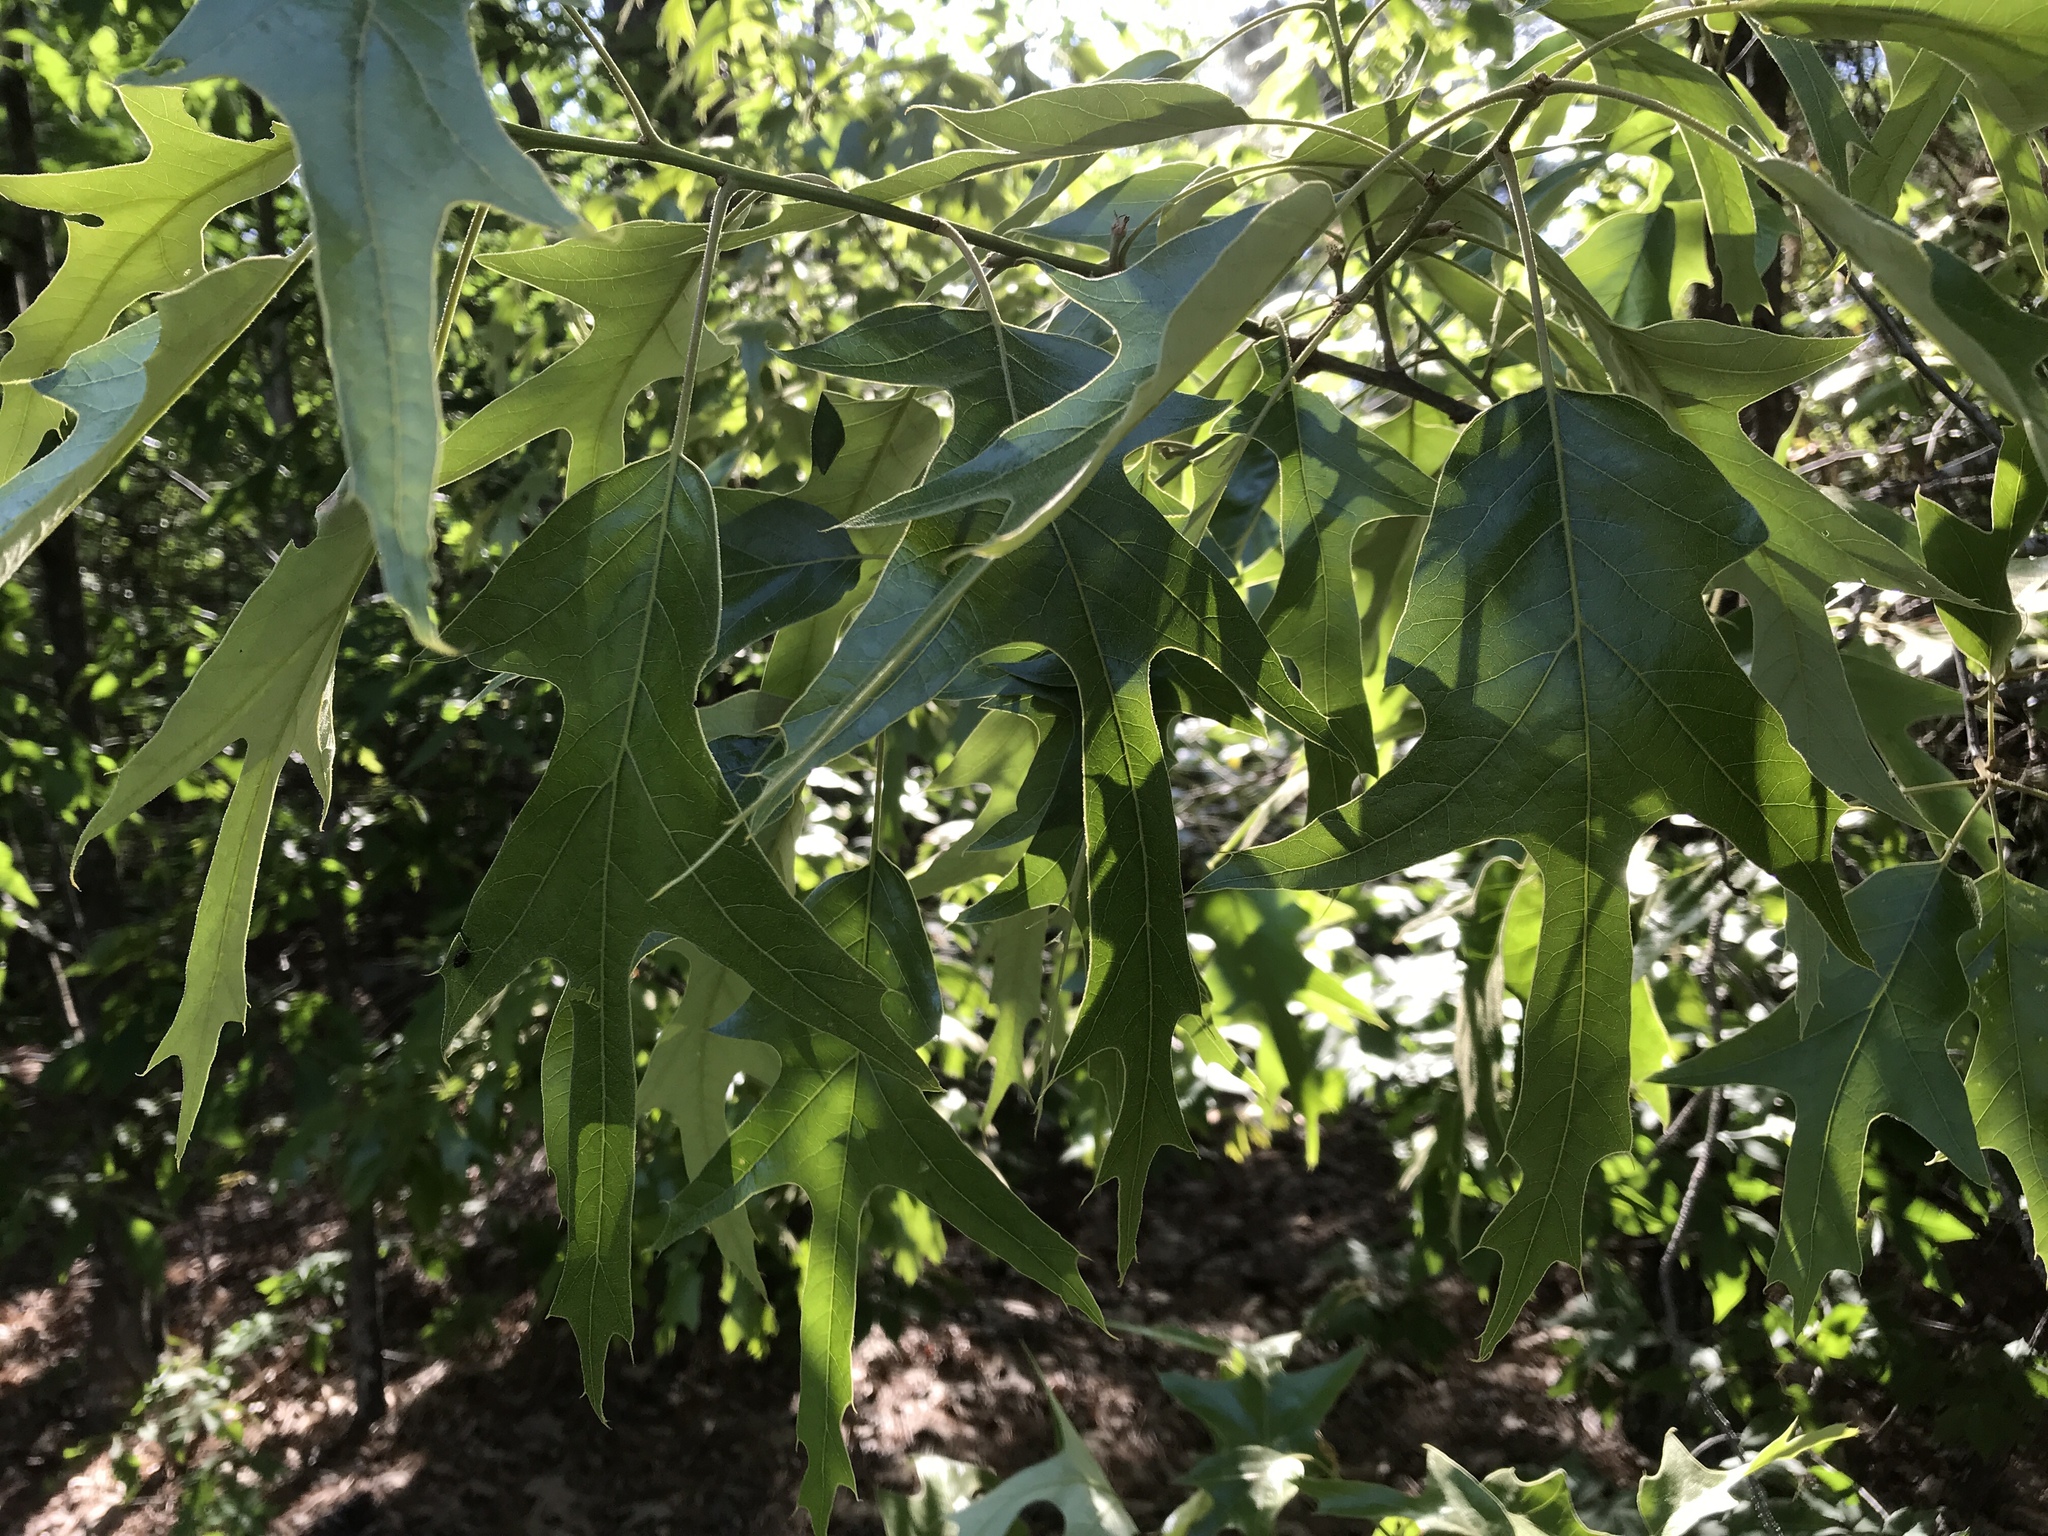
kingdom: Plantae
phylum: Tracheophyta
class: Magnoliopsida
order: Fagales
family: Fagaceae
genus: Quercus
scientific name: Quercus falcata
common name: Southern red oak
